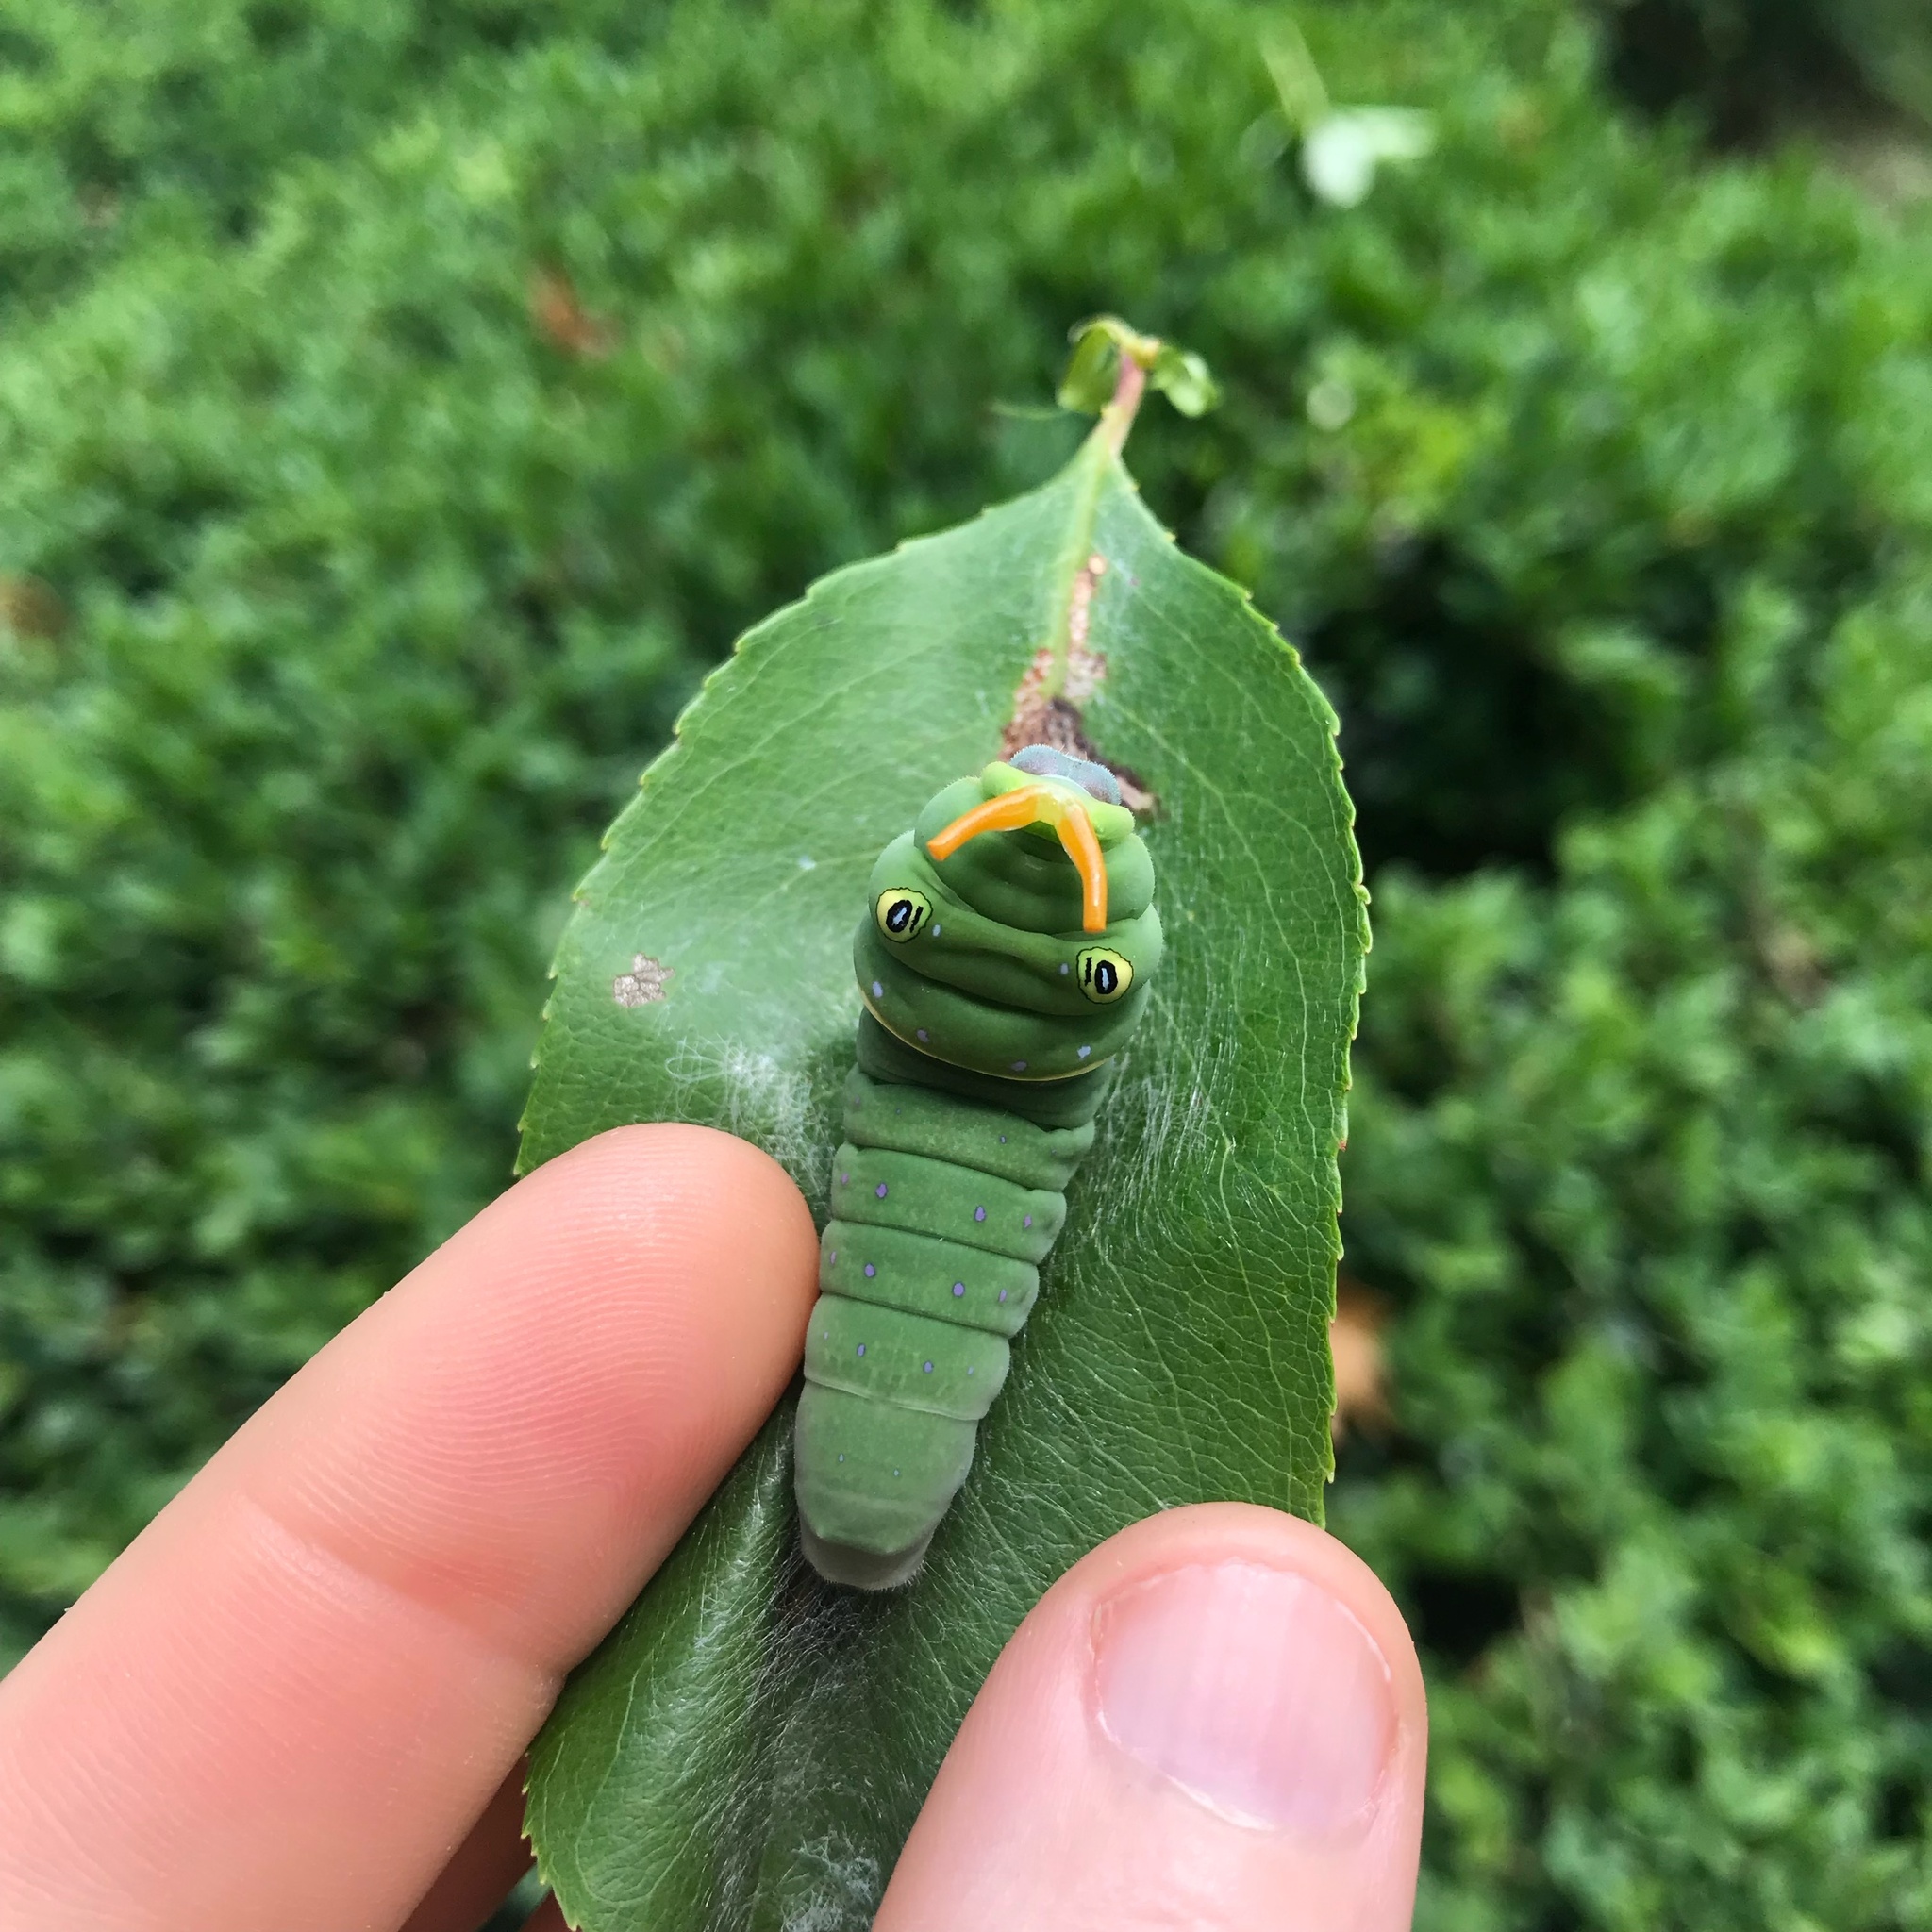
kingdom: Animalia
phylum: Arthropoda
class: Insecta
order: Lepidoptera
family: Papilionidae
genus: Papilio
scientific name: Papilio glaucus
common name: Tiger swallowtail
